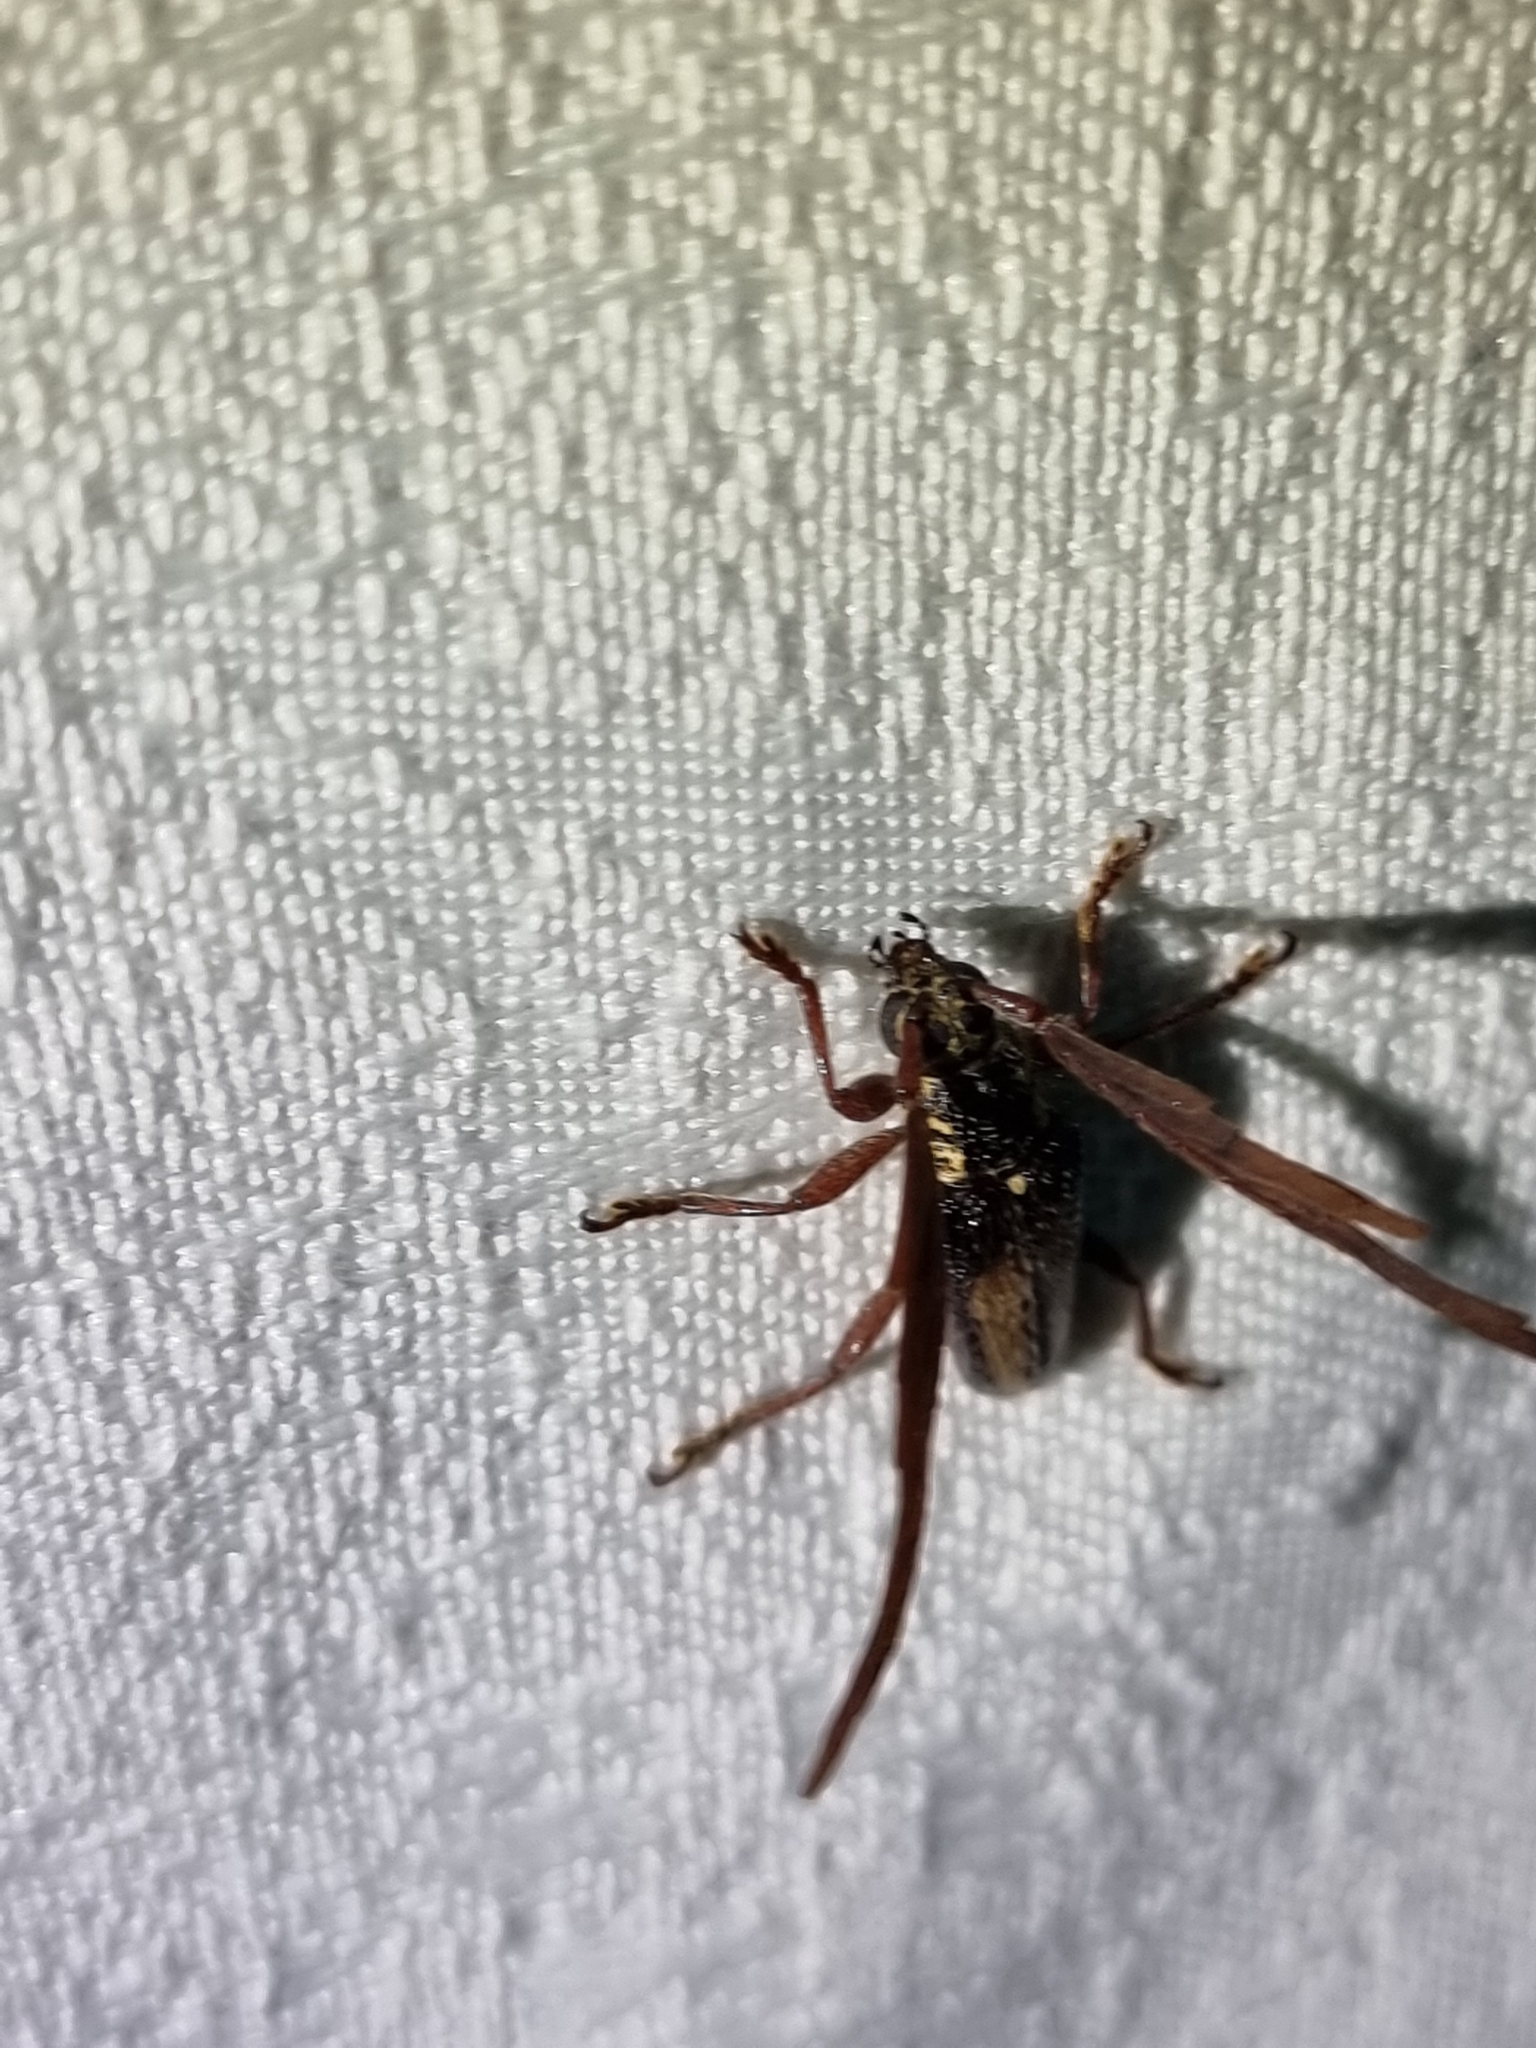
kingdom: Animalia
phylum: Arthropoda
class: Insecta
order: Coleoptera
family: Cerambycidae
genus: Piesarthrius
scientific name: Piesarthrius marginellus
